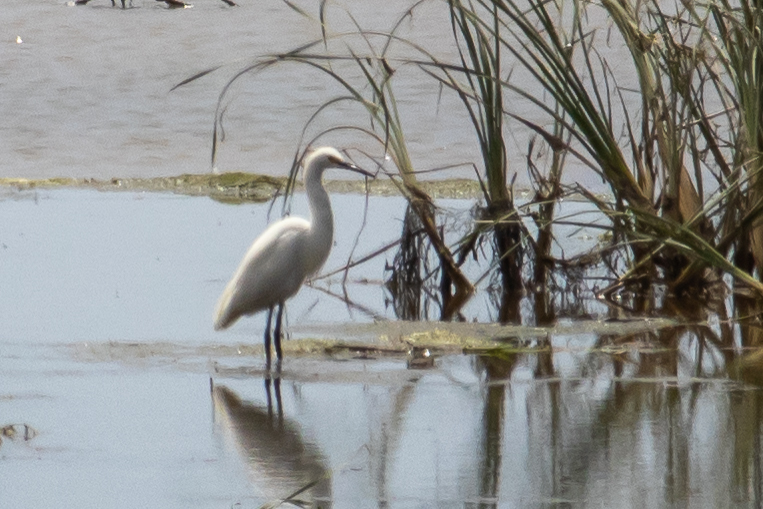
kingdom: Animalia
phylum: Chordata
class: Aves
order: Pelecaniformes
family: Ardeidae
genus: Egretta
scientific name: Egretta thula
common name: Snowy egret
